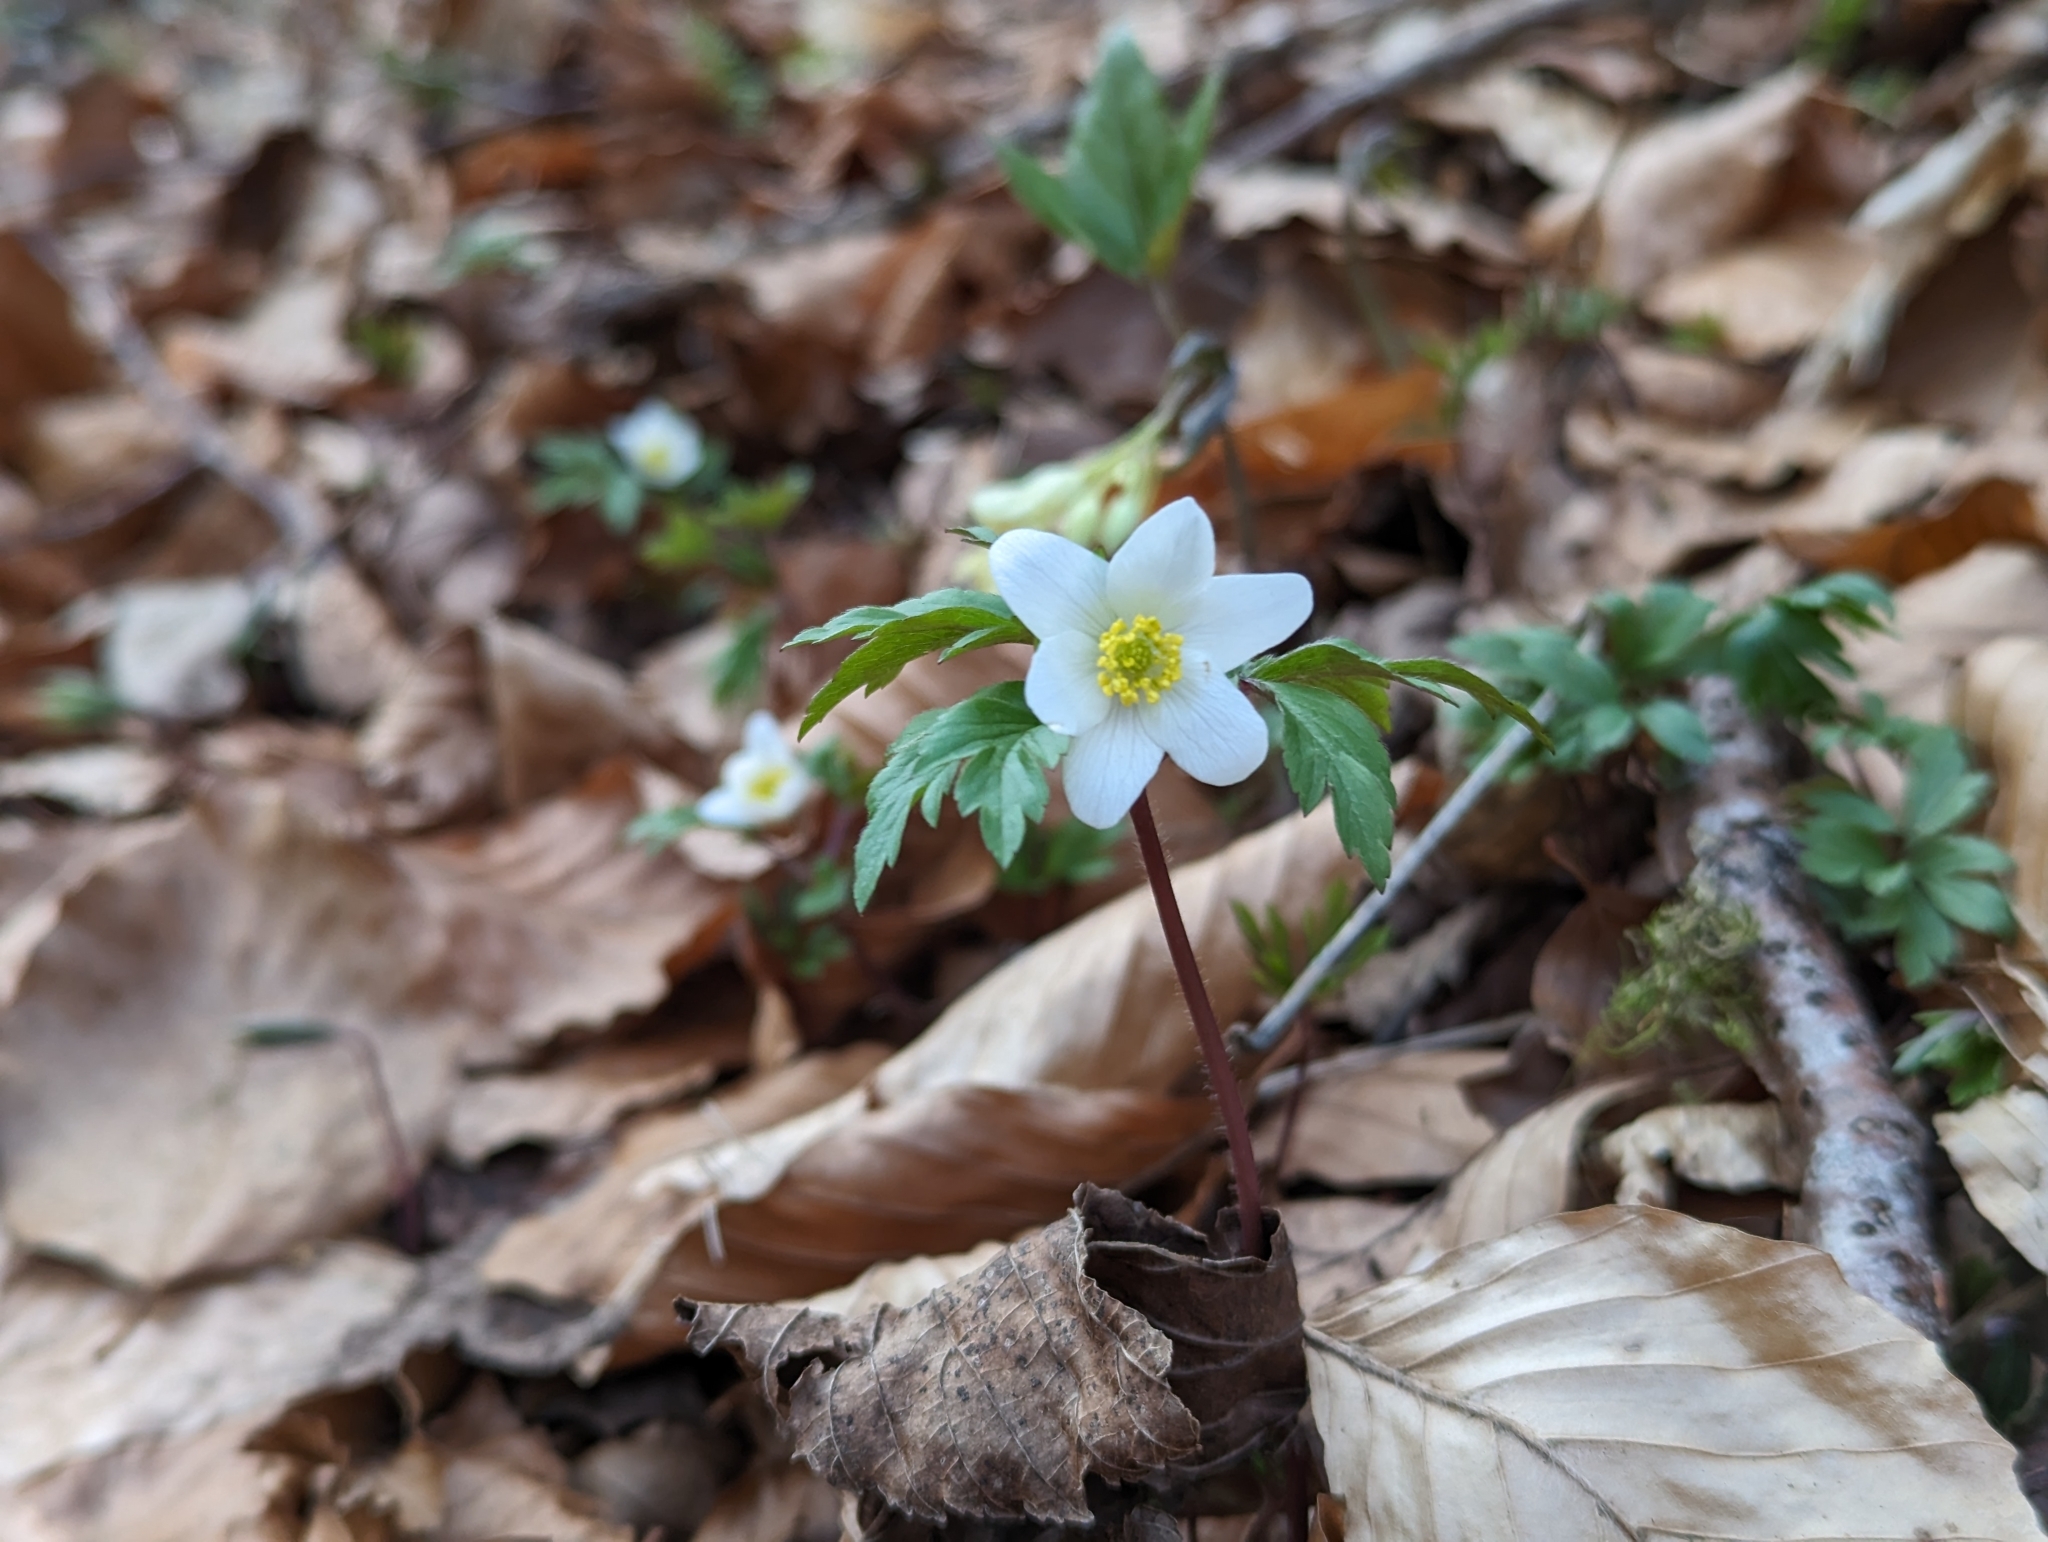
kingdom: Plantae
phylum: Tracheophyta
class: Magnoliopsida
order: Ranunculales
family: Ranunculaceae
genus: Anemone
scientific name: Anemone nemorosa
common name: Wood anemone
